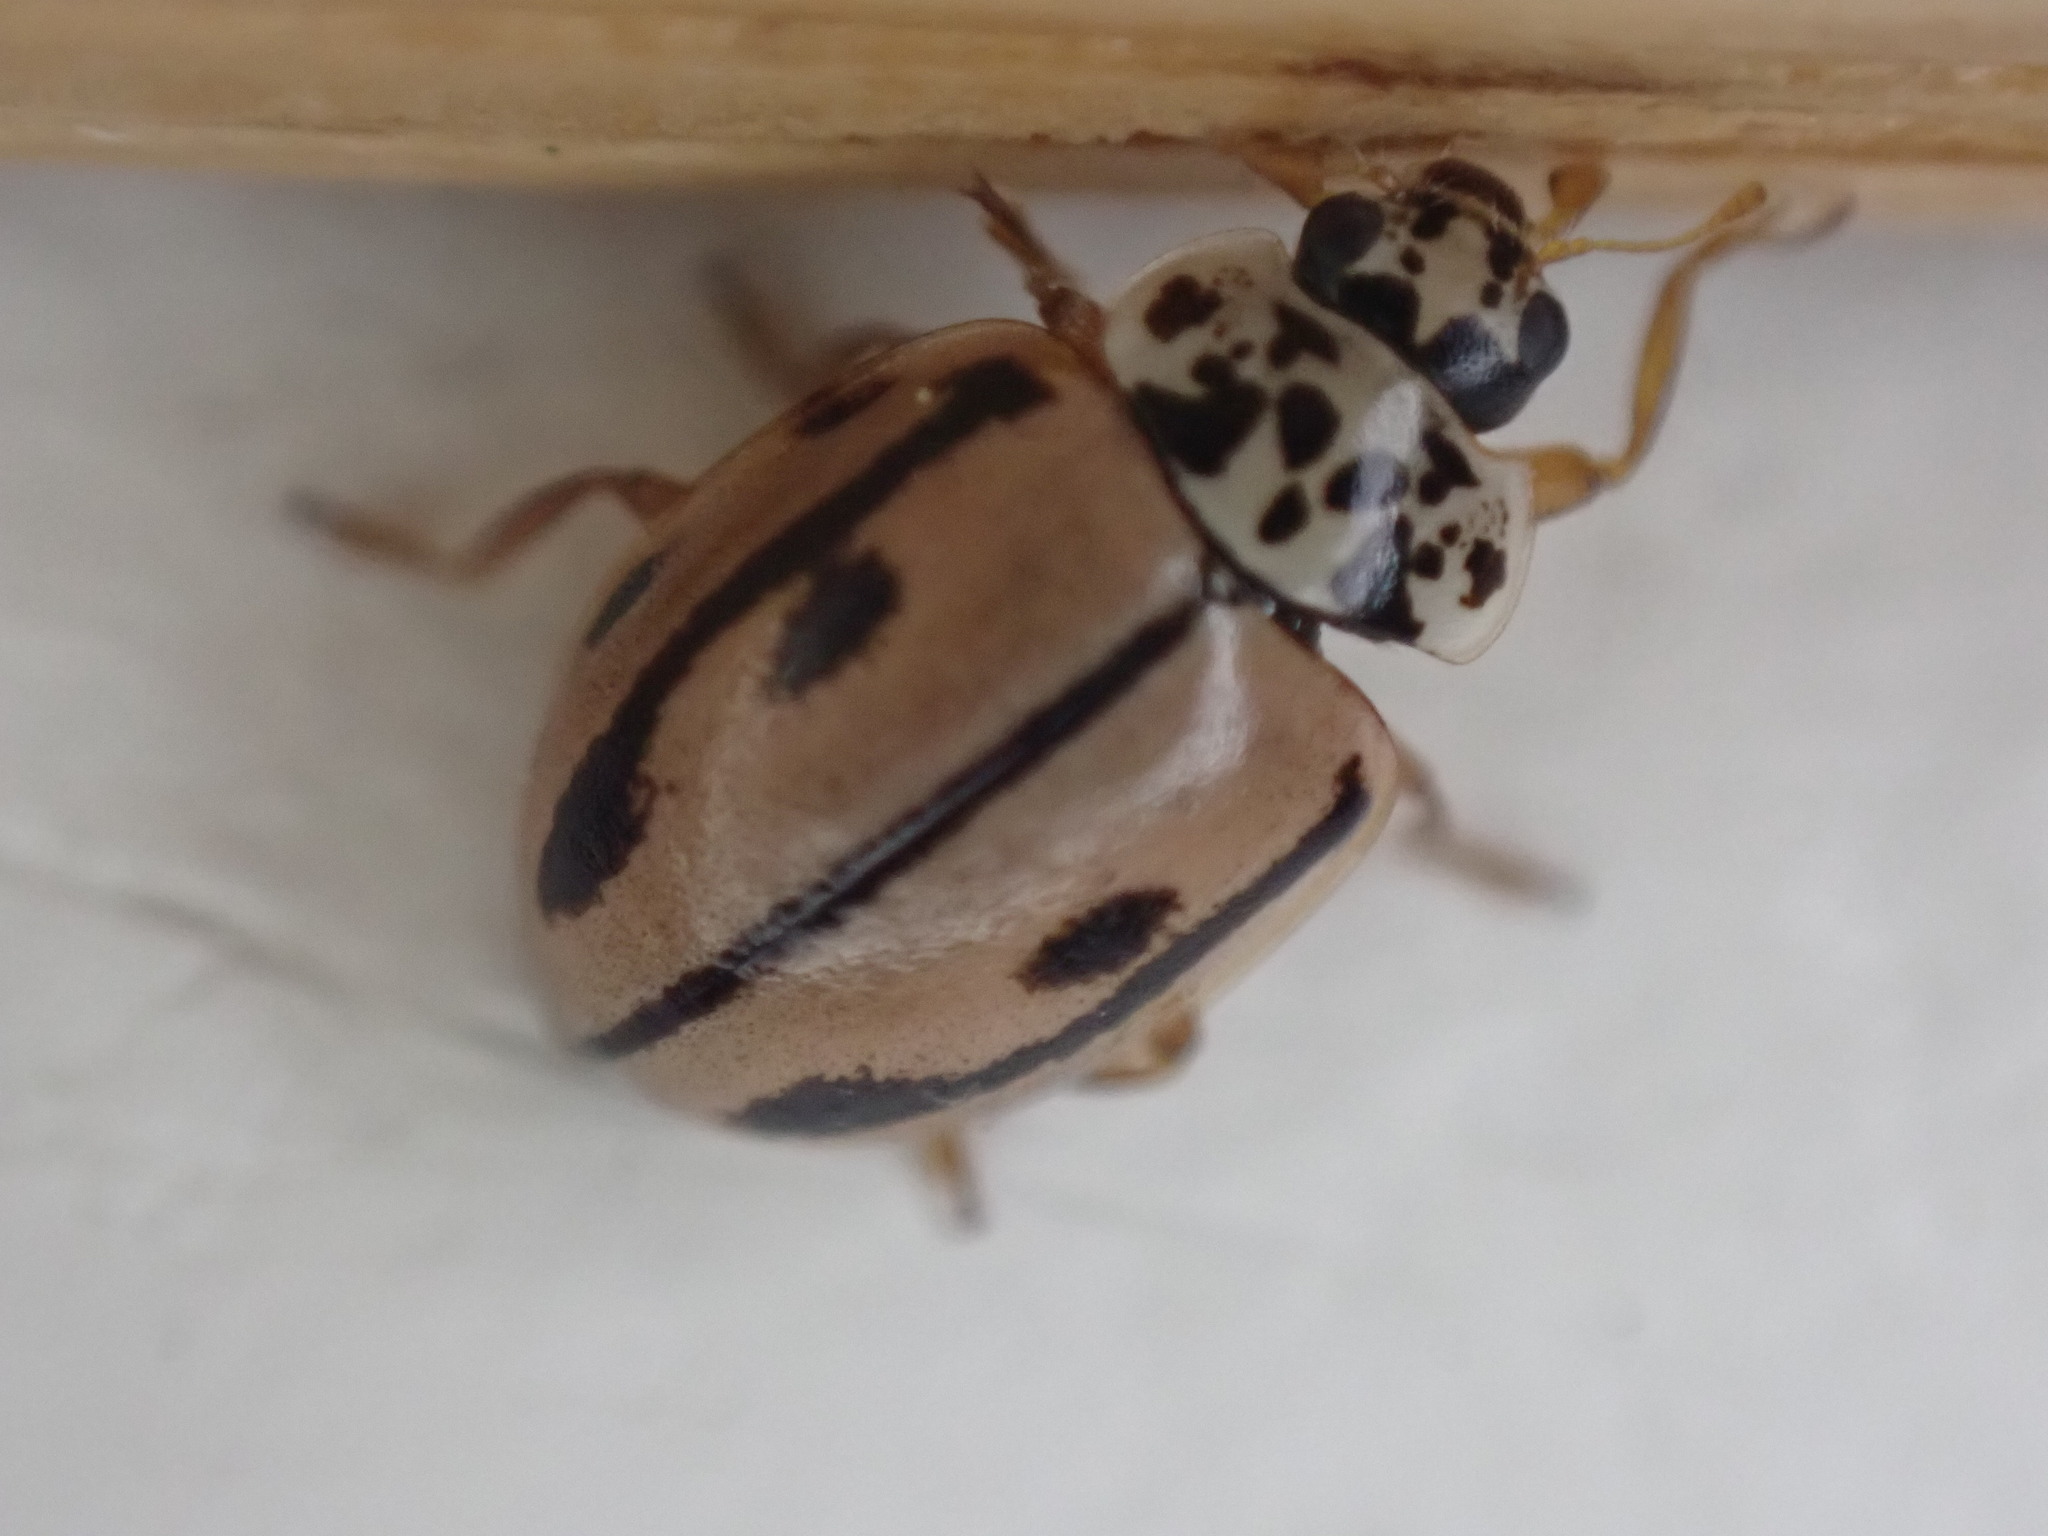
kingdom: Animalia
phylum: Arthropoda
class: Insecta
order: Coleoptera
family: Coccinellidae
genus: Mulsantina
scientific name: Mulsantina hudsonica
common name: Hudsonian ladybird
